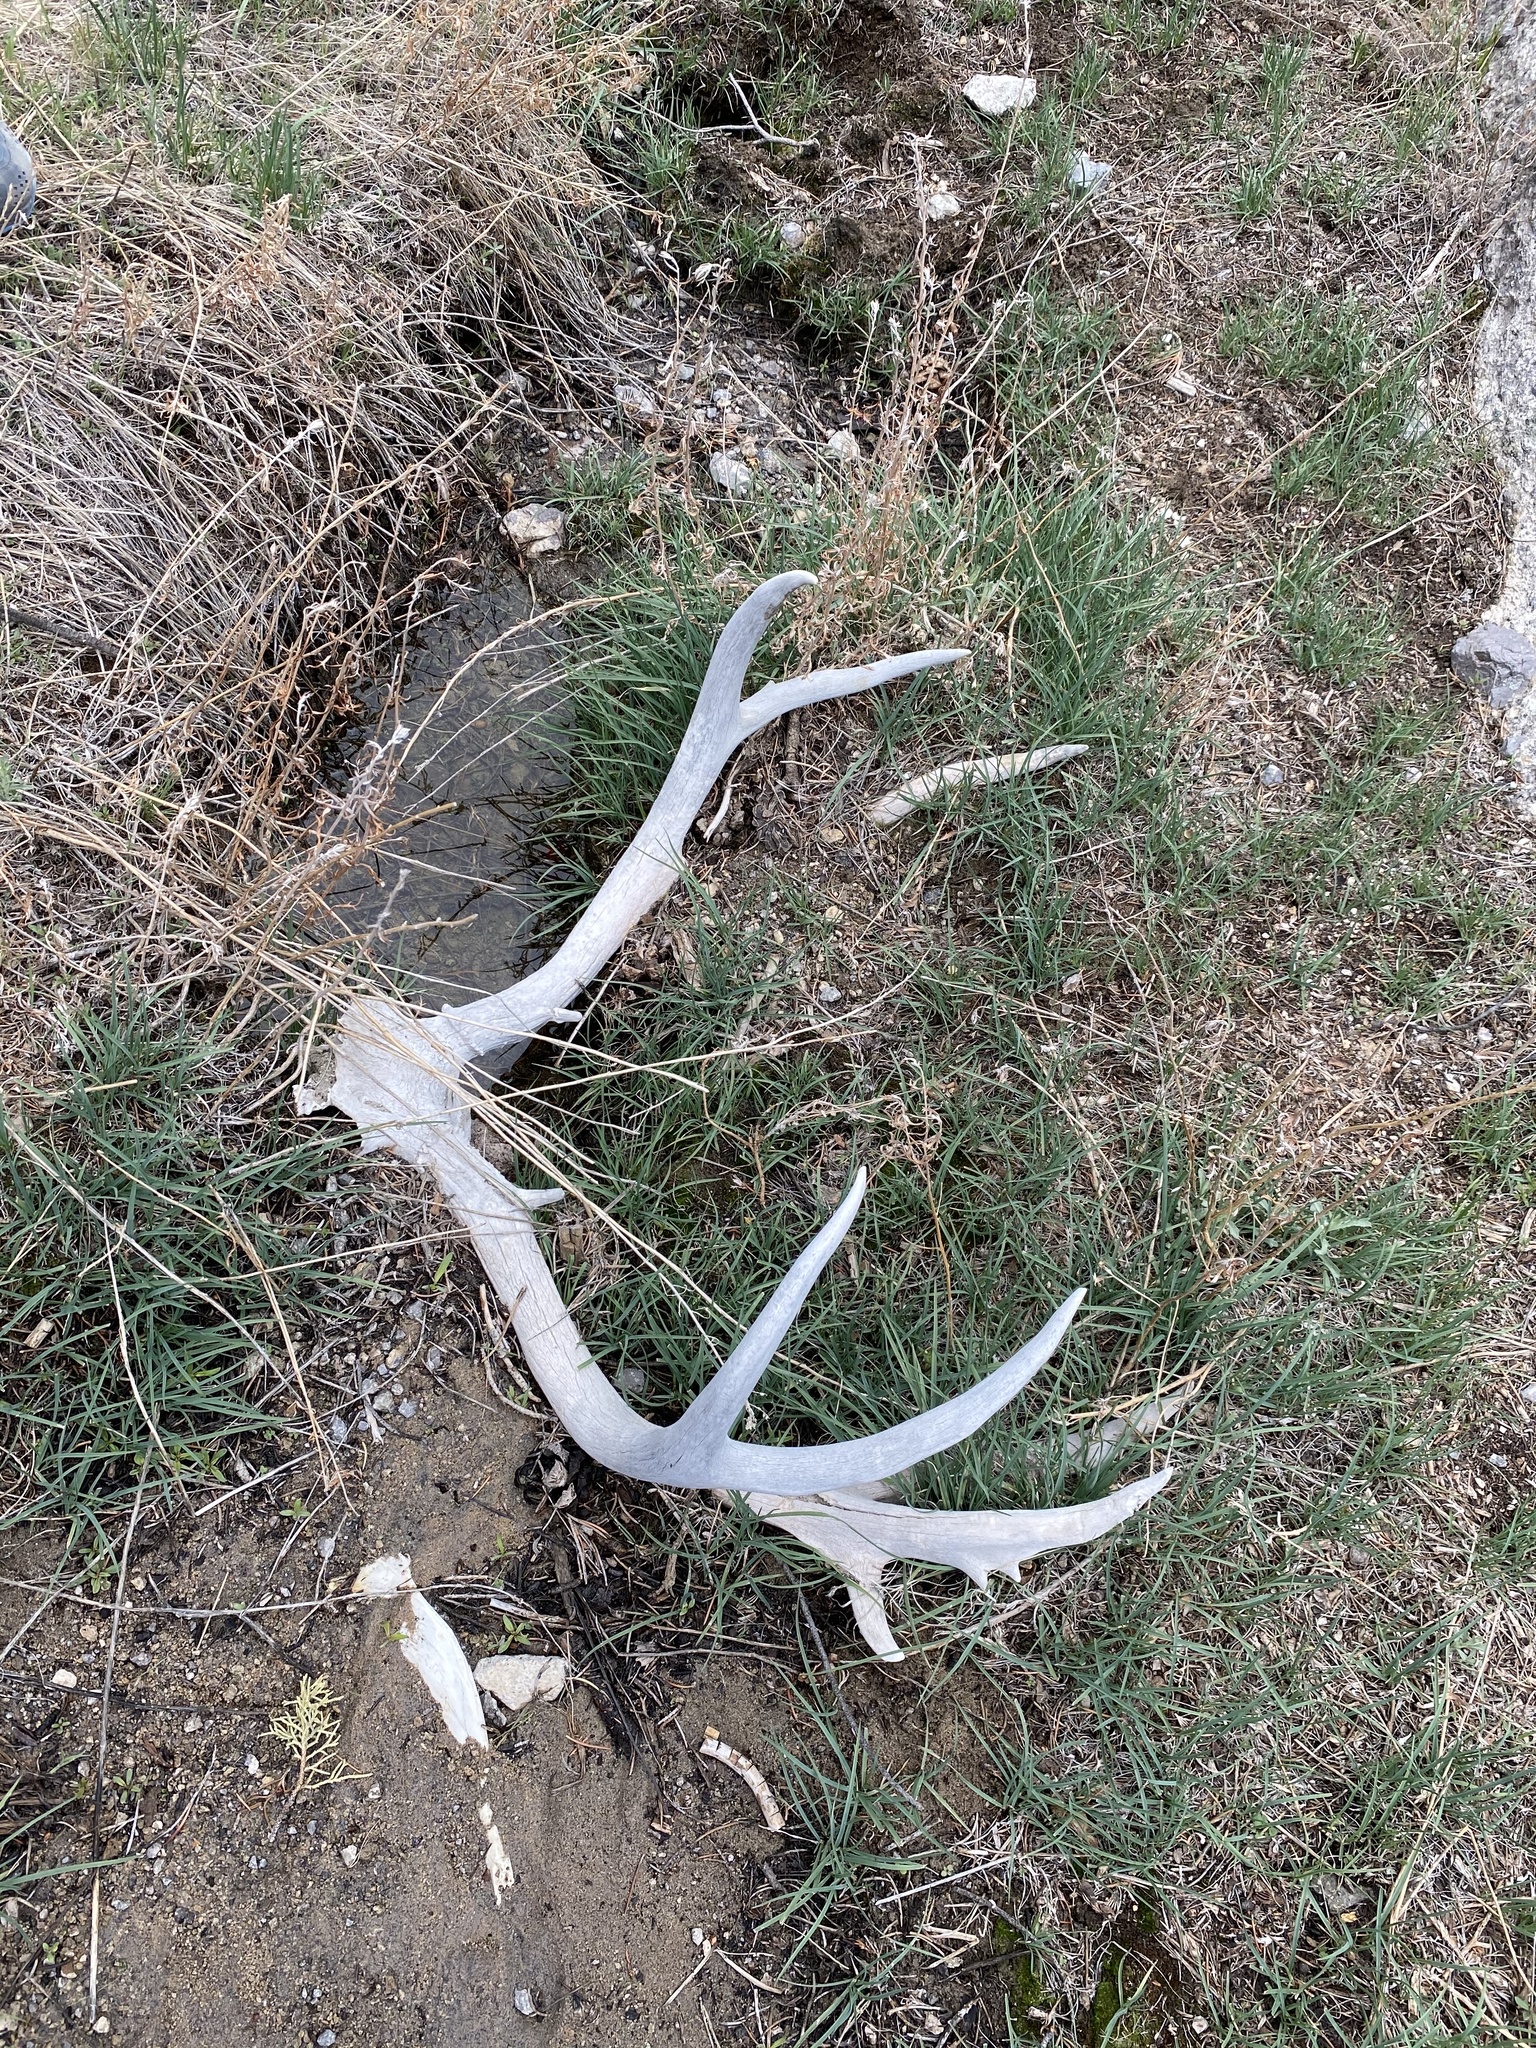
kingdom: Animalia
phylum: Chordata
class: Mammalia
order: Artiodactyla
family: Cervidae
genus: Odocoileus
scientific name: Odocoileus hemionus
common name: Mule deer
